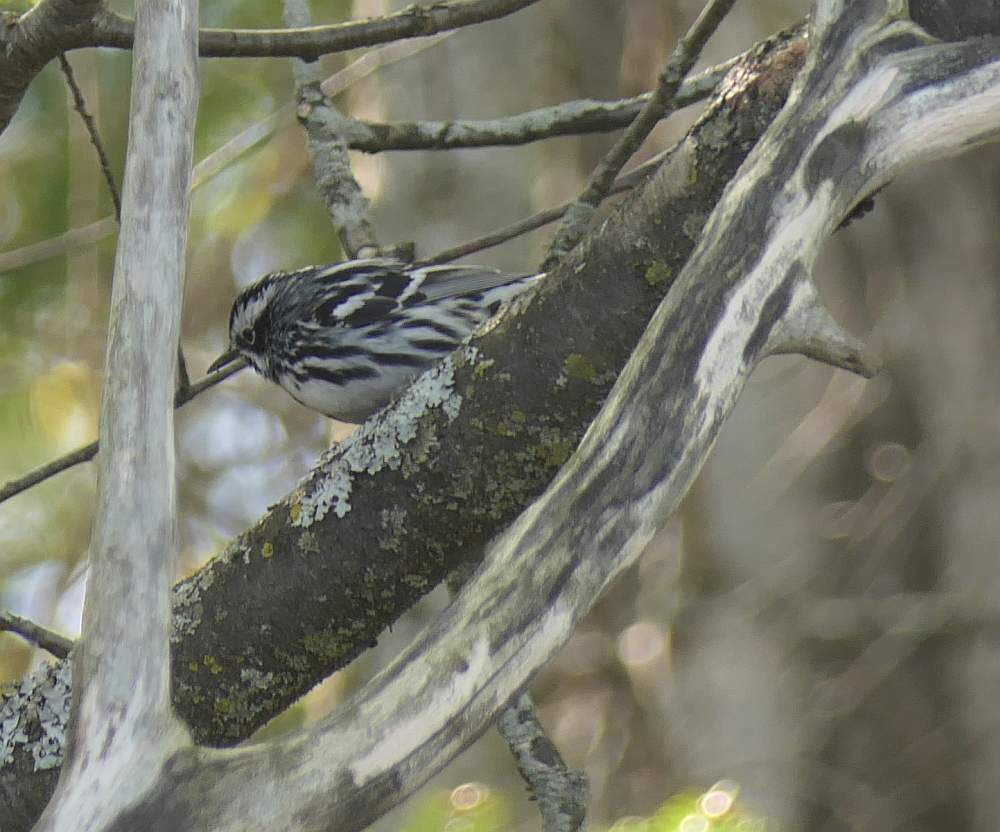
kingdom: Animalia
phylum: Chordata
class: Aves
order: Passeriformes
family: Parulidae
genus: Mniotilta
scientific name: Mniotilta varia
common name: Black-and-white warbler
